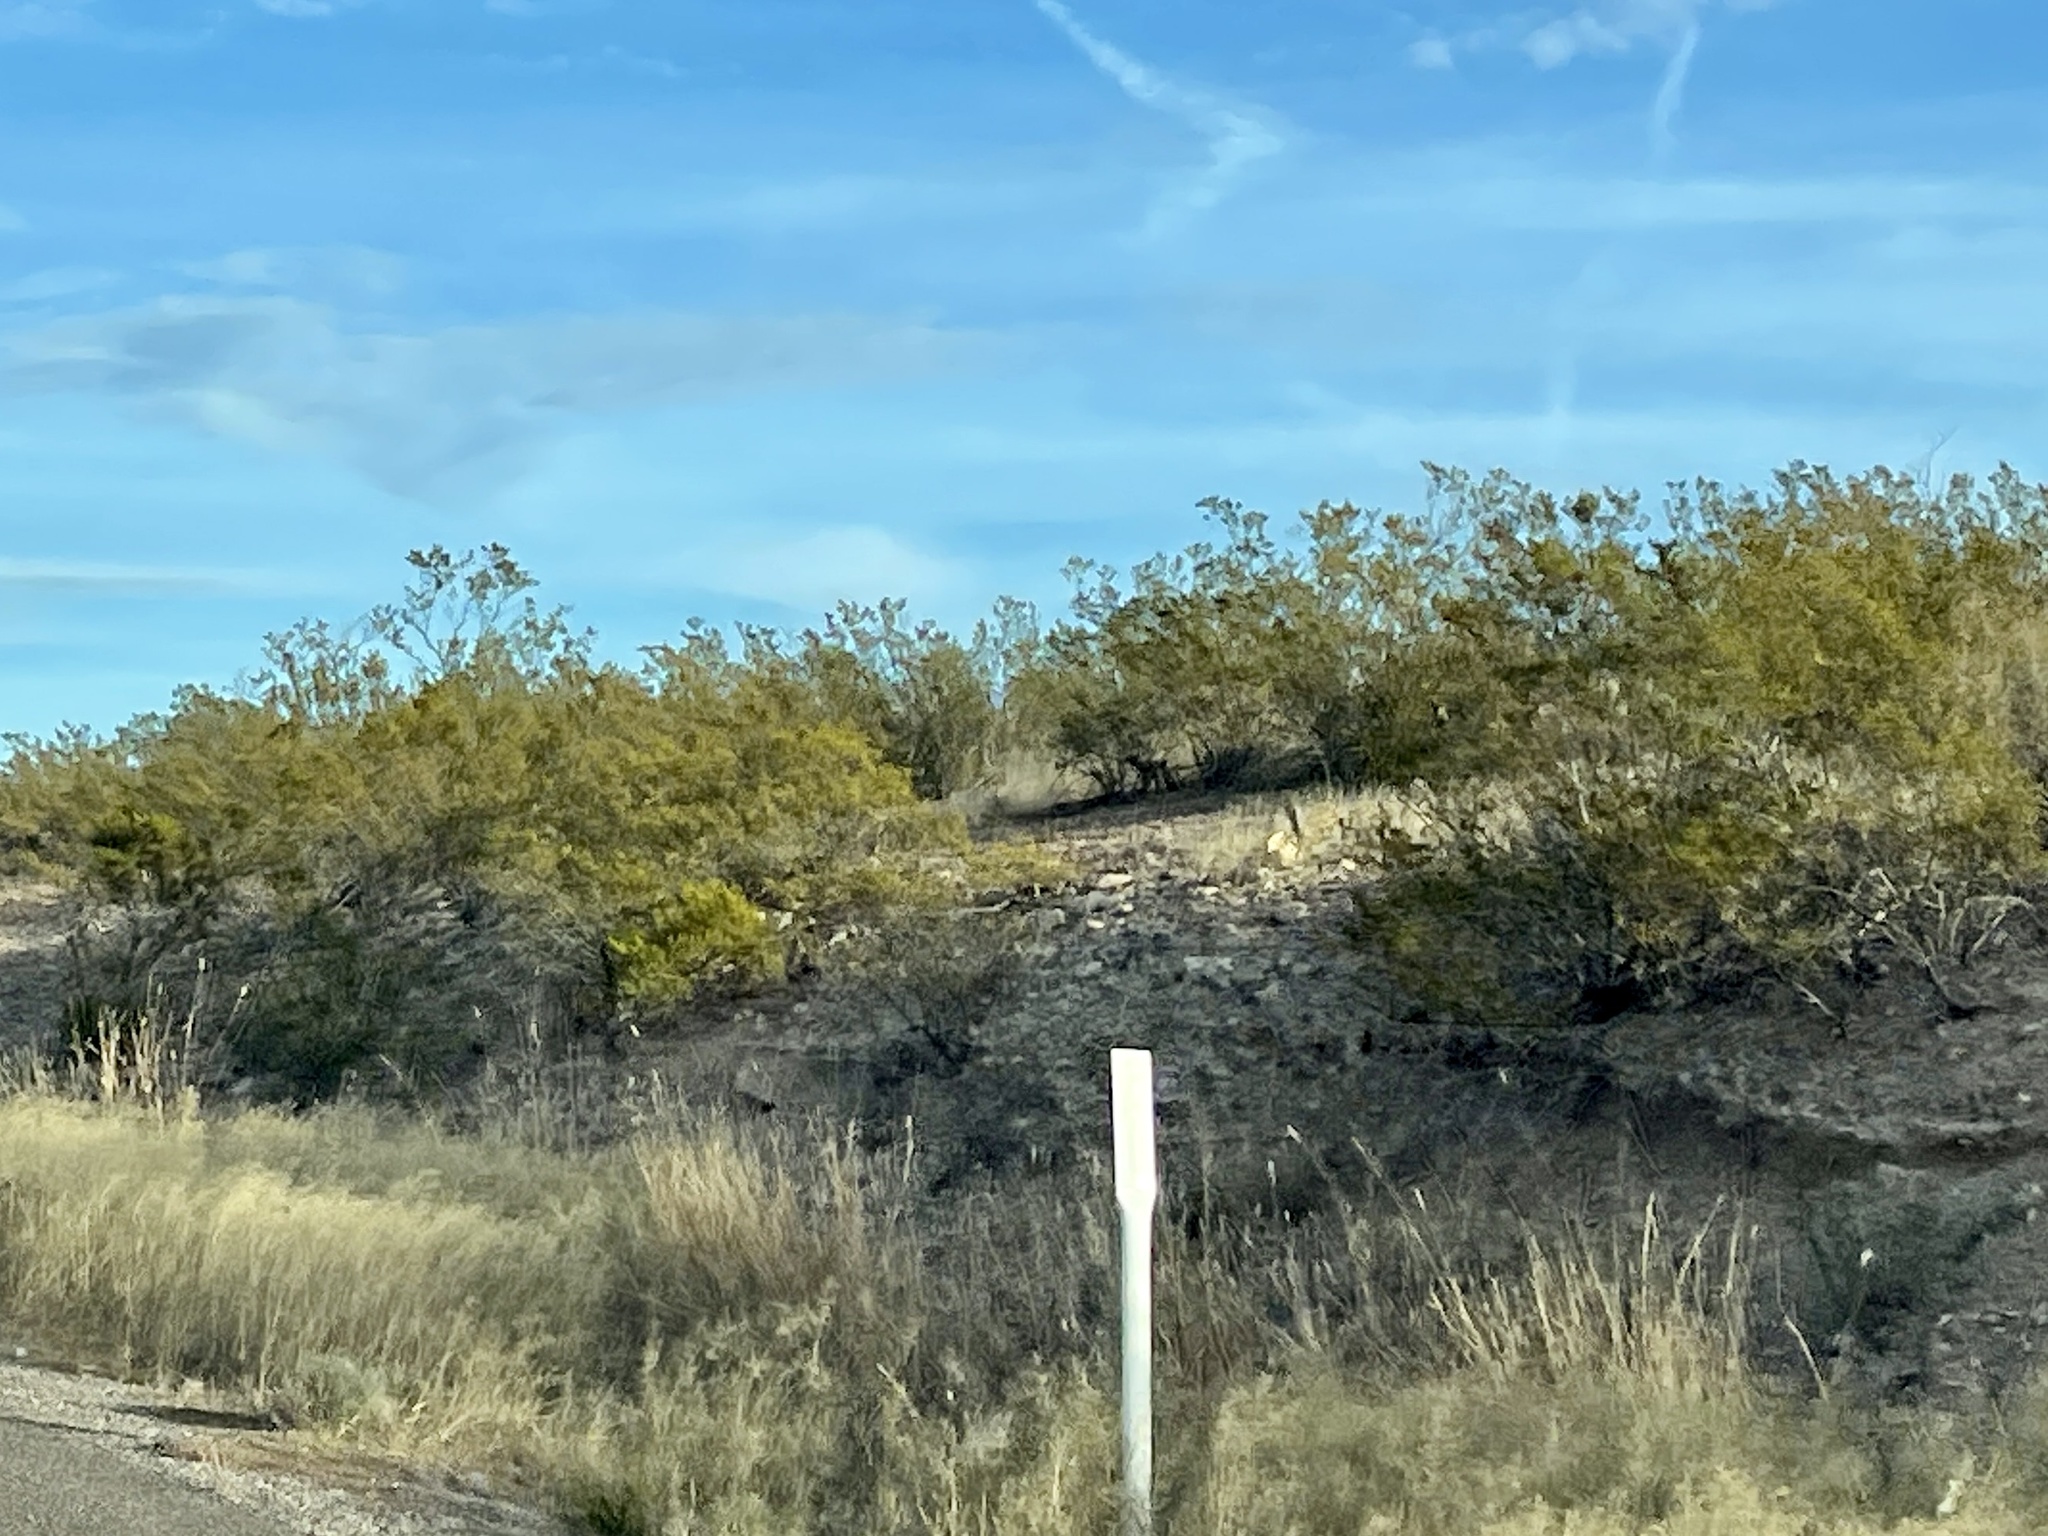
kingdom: Plantae
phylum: Tracheophyta
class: Magnoliopsida
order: Zygophyllales
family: Zygophyllaceae
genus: Larrea
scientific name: Larrea tridentata
